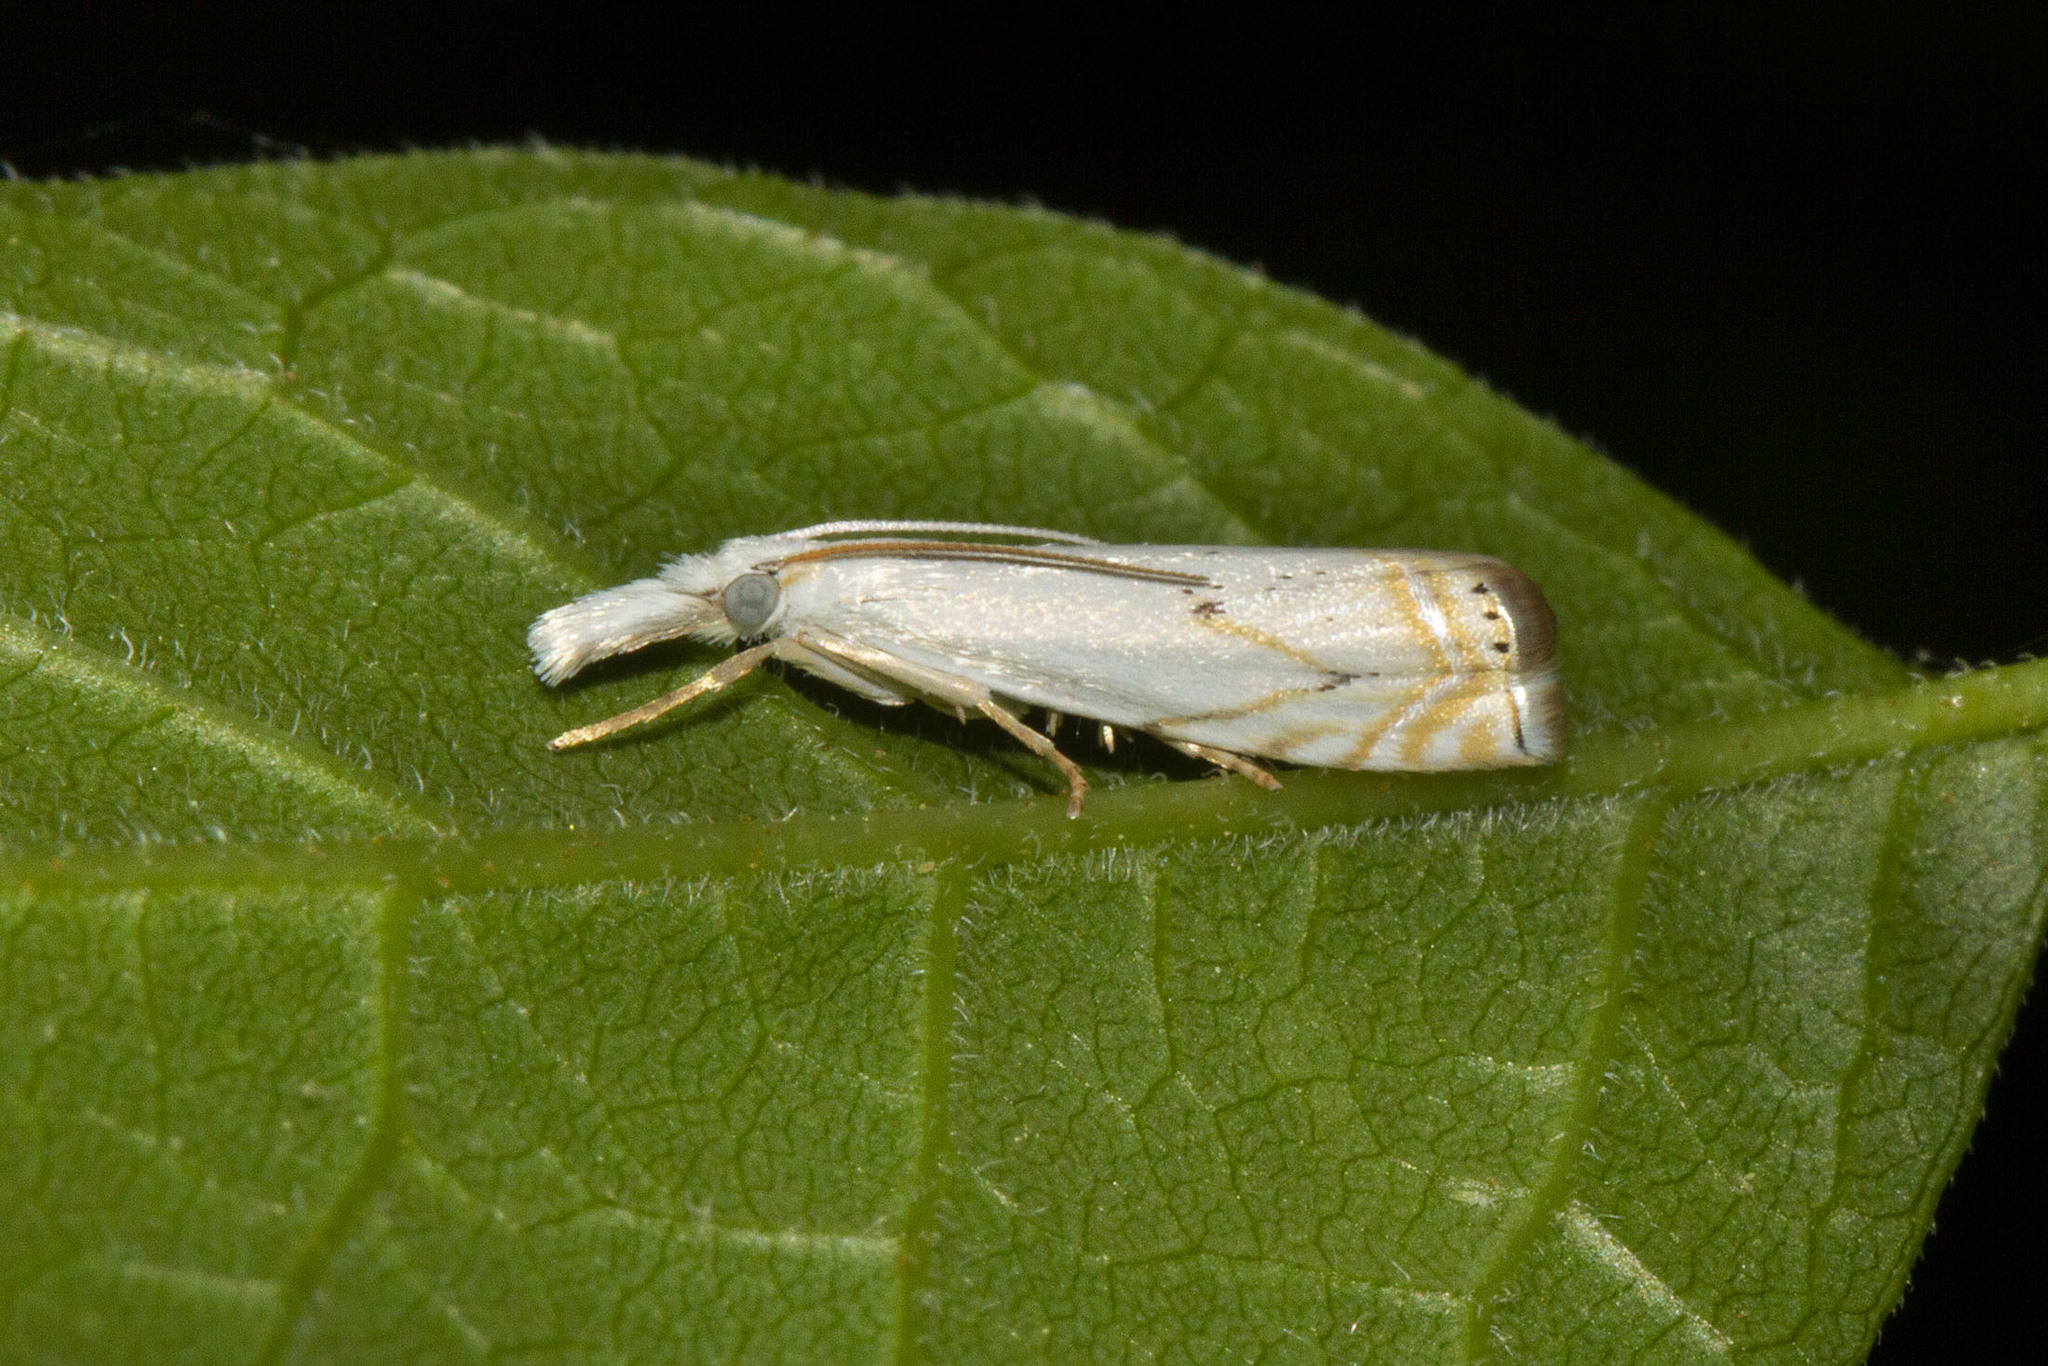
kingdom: Animalia
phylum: Arthropoda
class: Insecta
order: Lepidoptera
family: Crambidae
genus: Crambus
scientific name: Crambus albellus
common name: Small white grass-veneer
